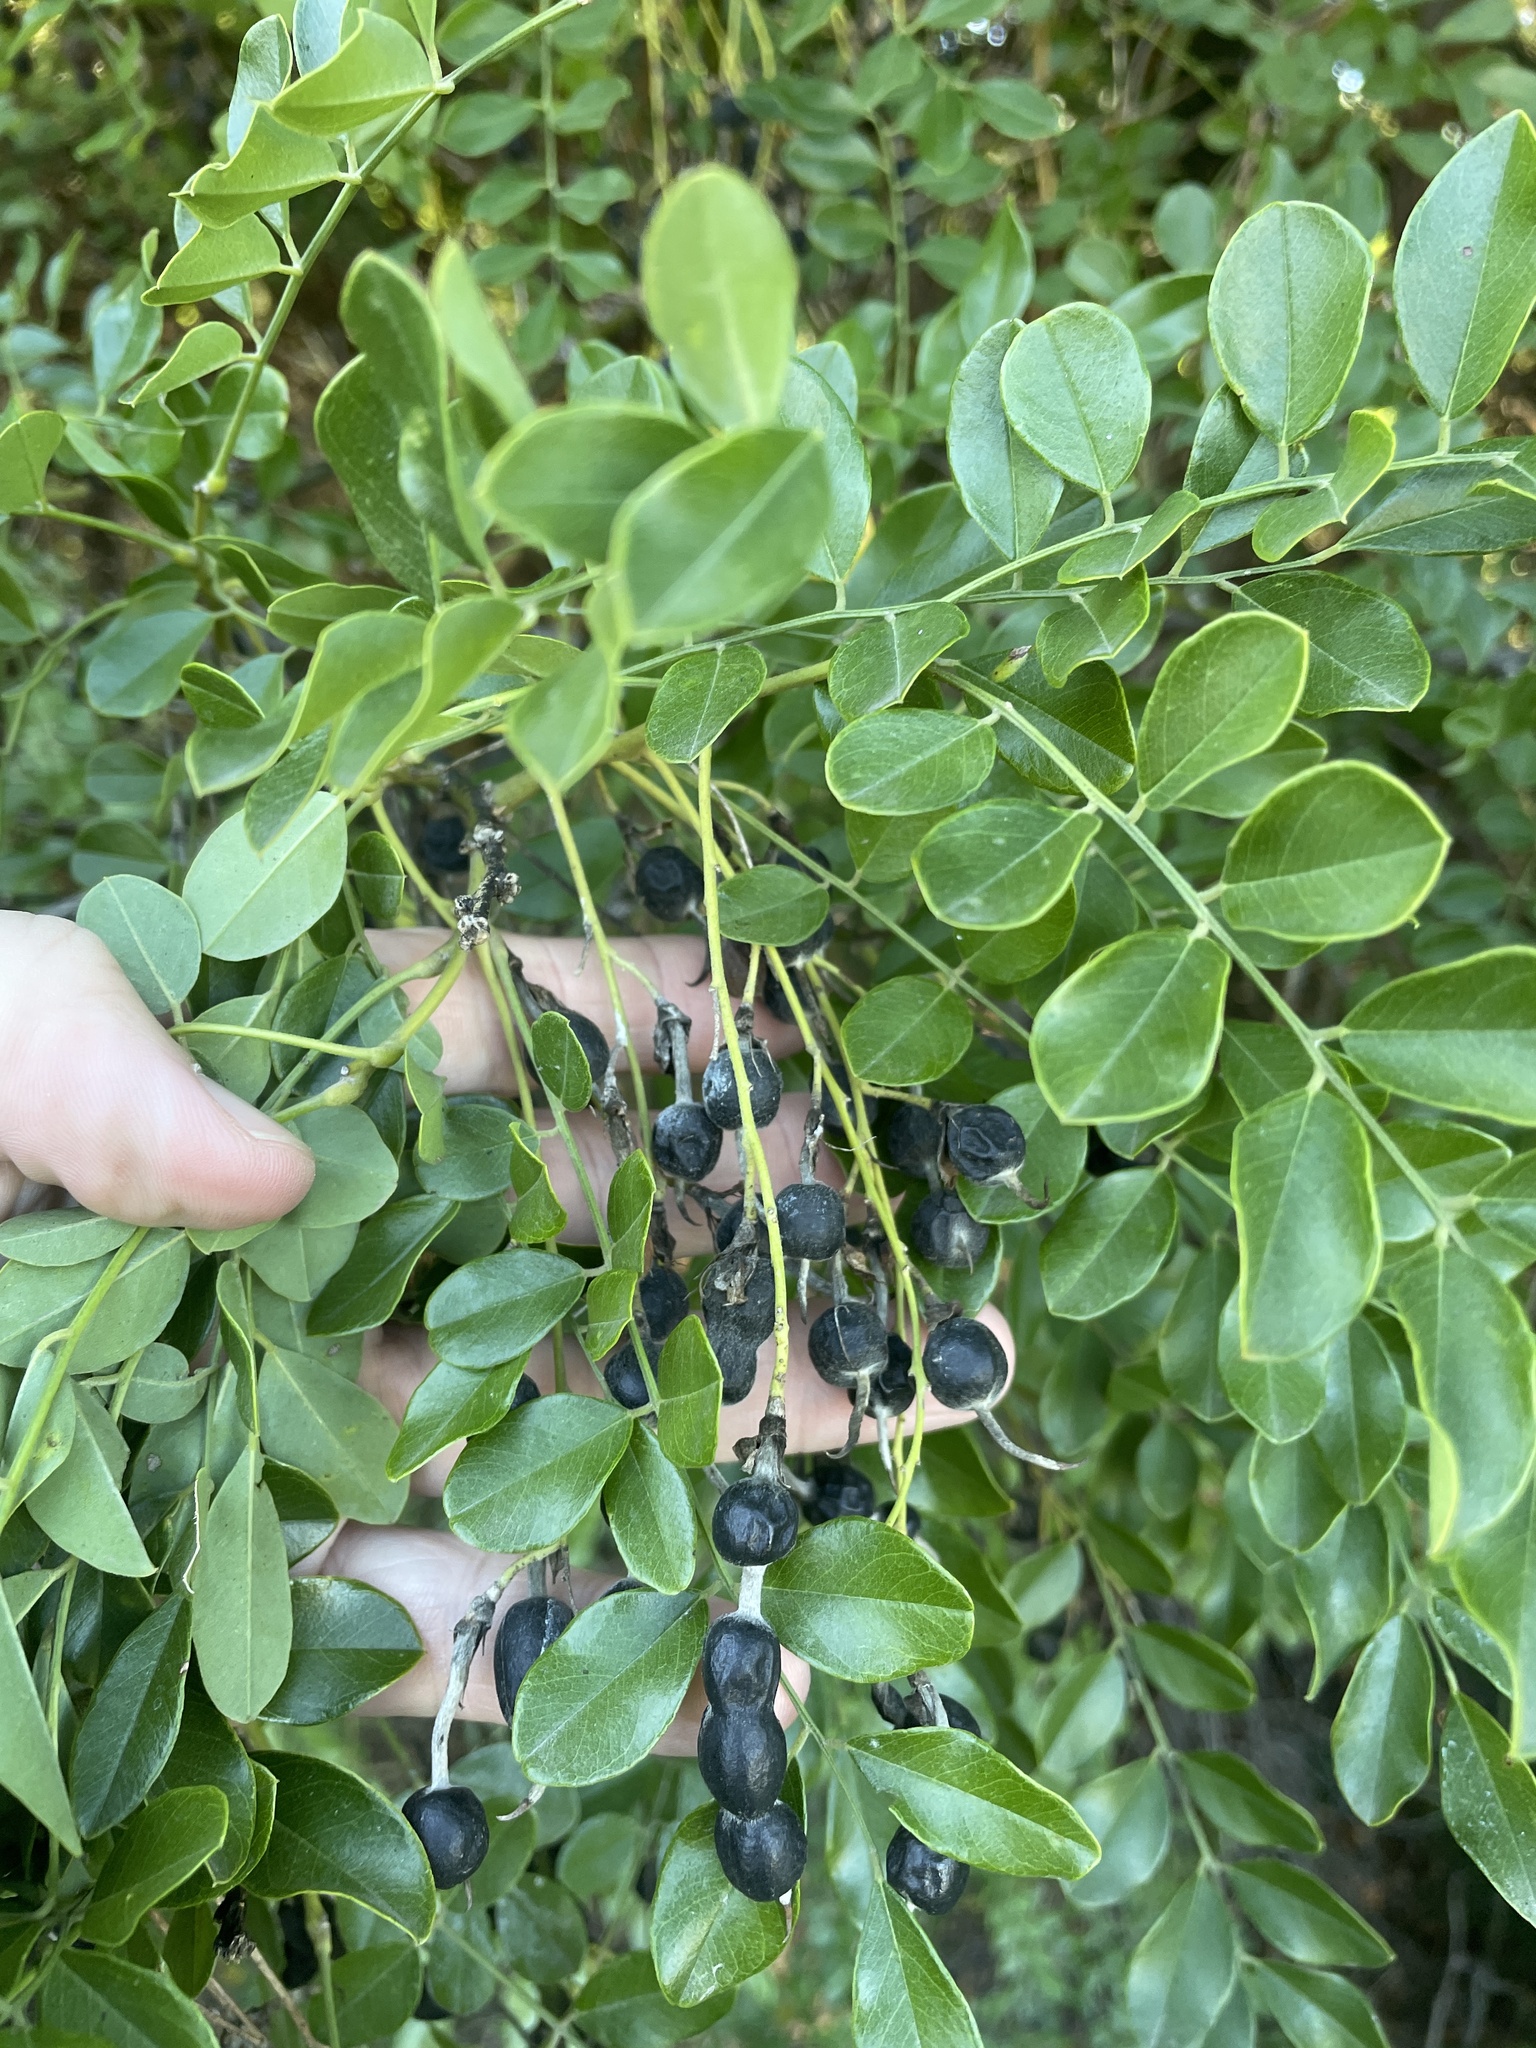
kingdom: Plantae
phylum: Tracheophyta
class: Magnoliopsida
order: Fabales
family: Fabaceae
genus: Styphnolobium
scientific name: Styphnolobium affine
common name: Texas sophora
